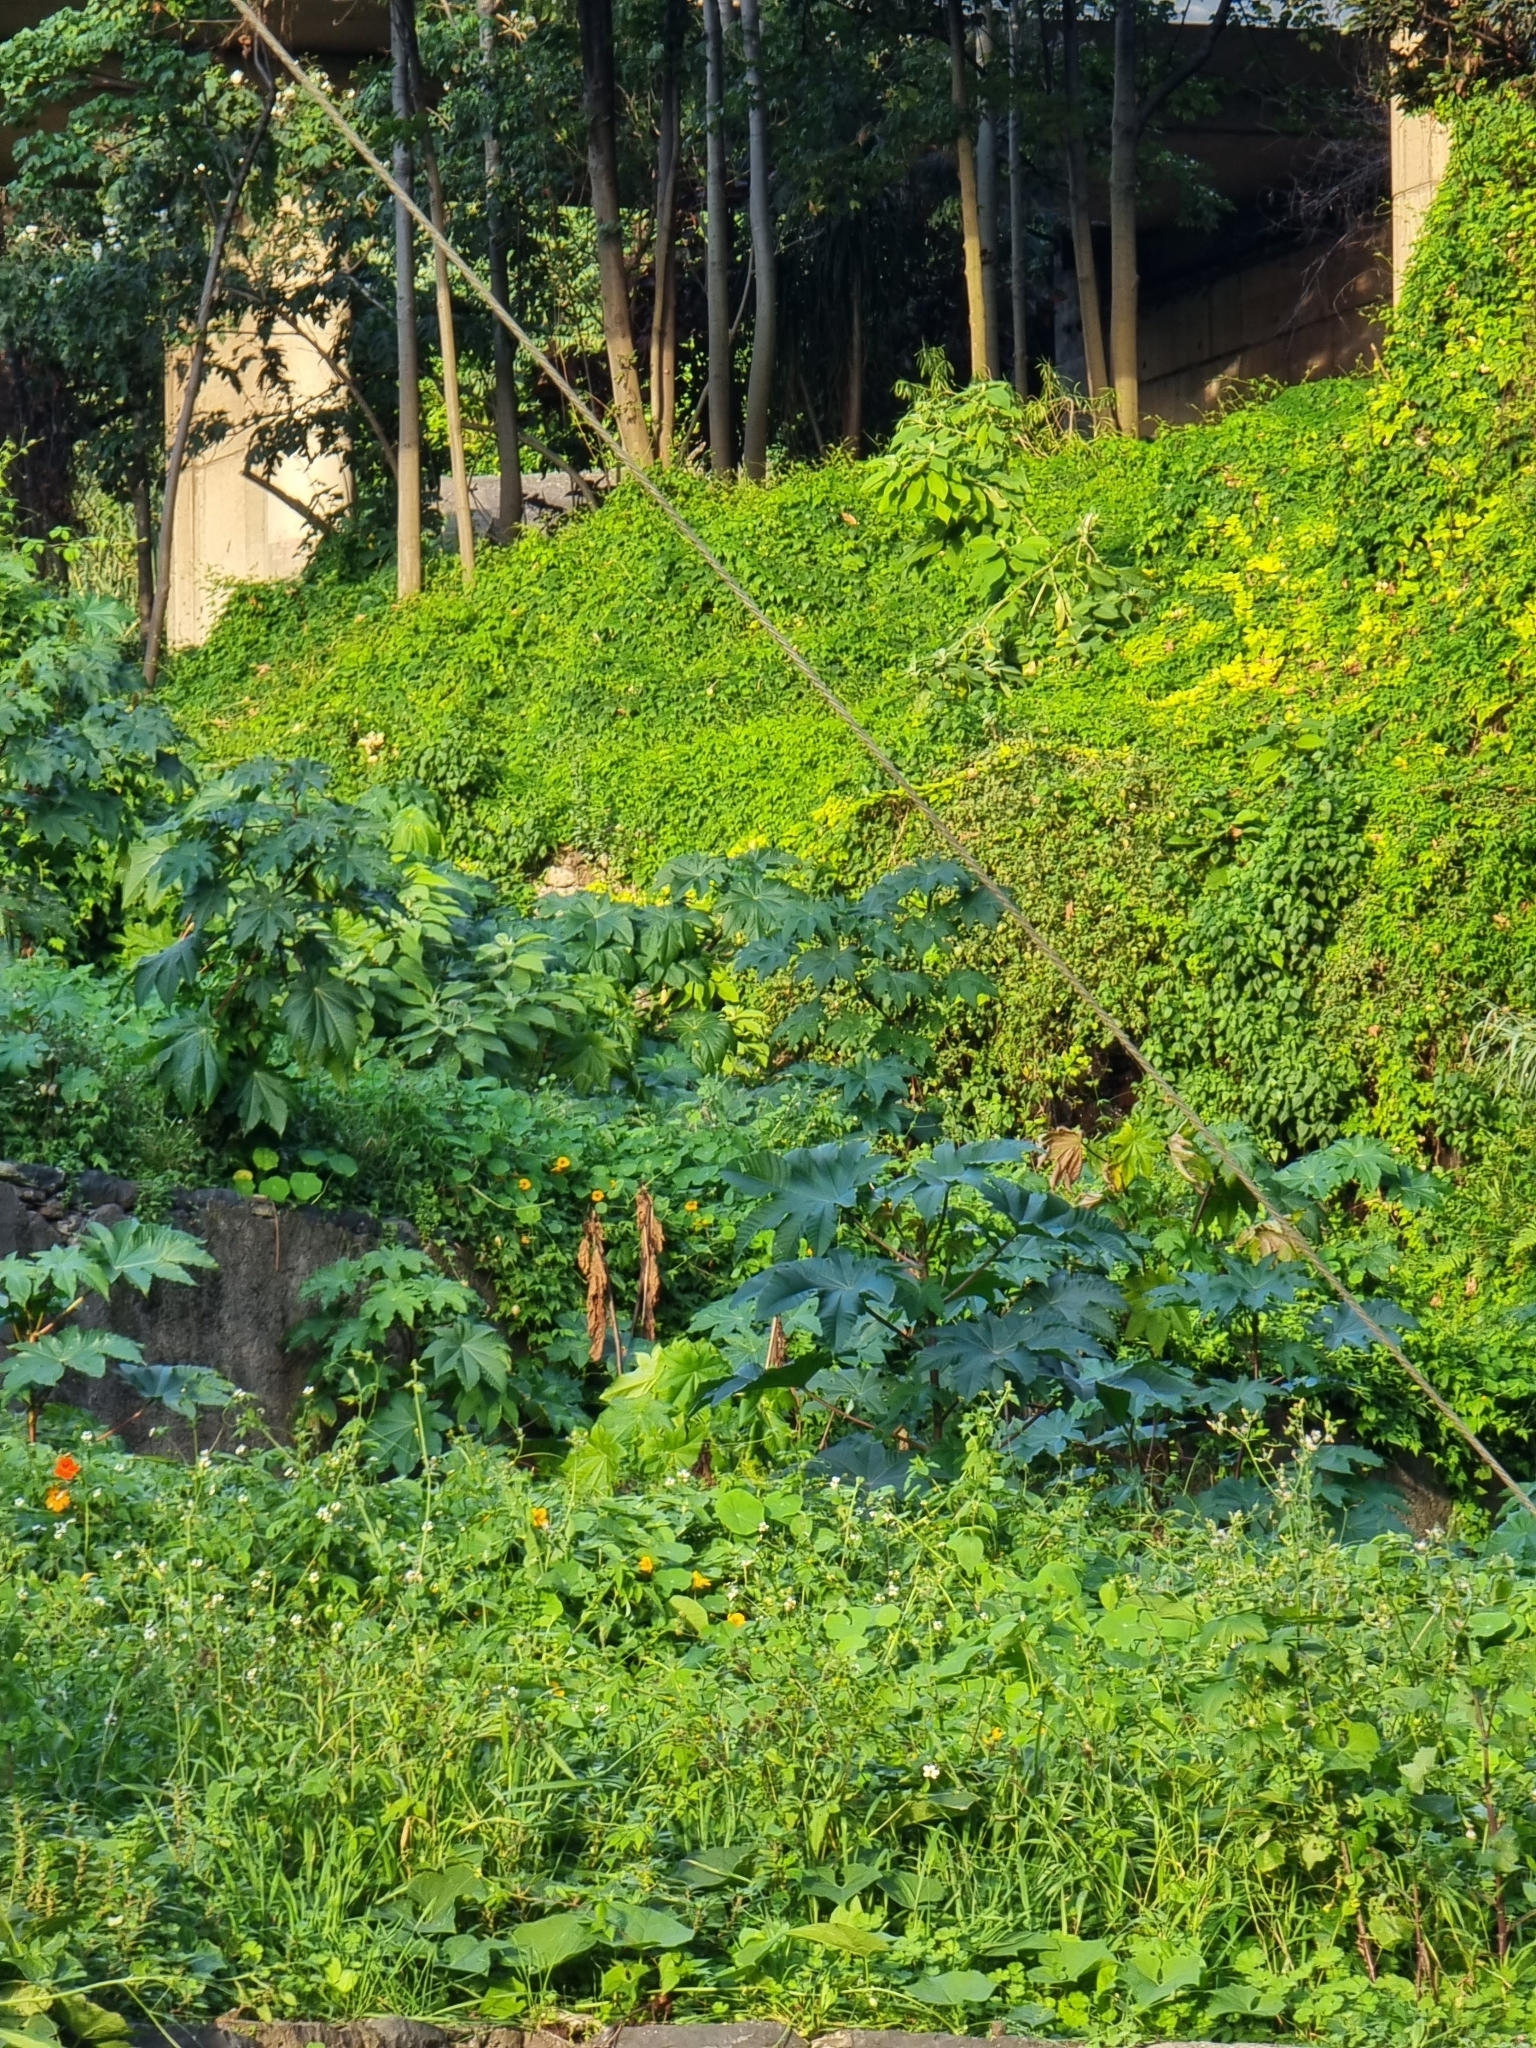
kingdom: Plantae
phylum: Tracheophyta
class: Magnoliopsida
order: Malpighiales
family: Euphorbiaceae
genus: Ricinus
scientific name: Ricinus communis
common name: Castor-oil-plant
